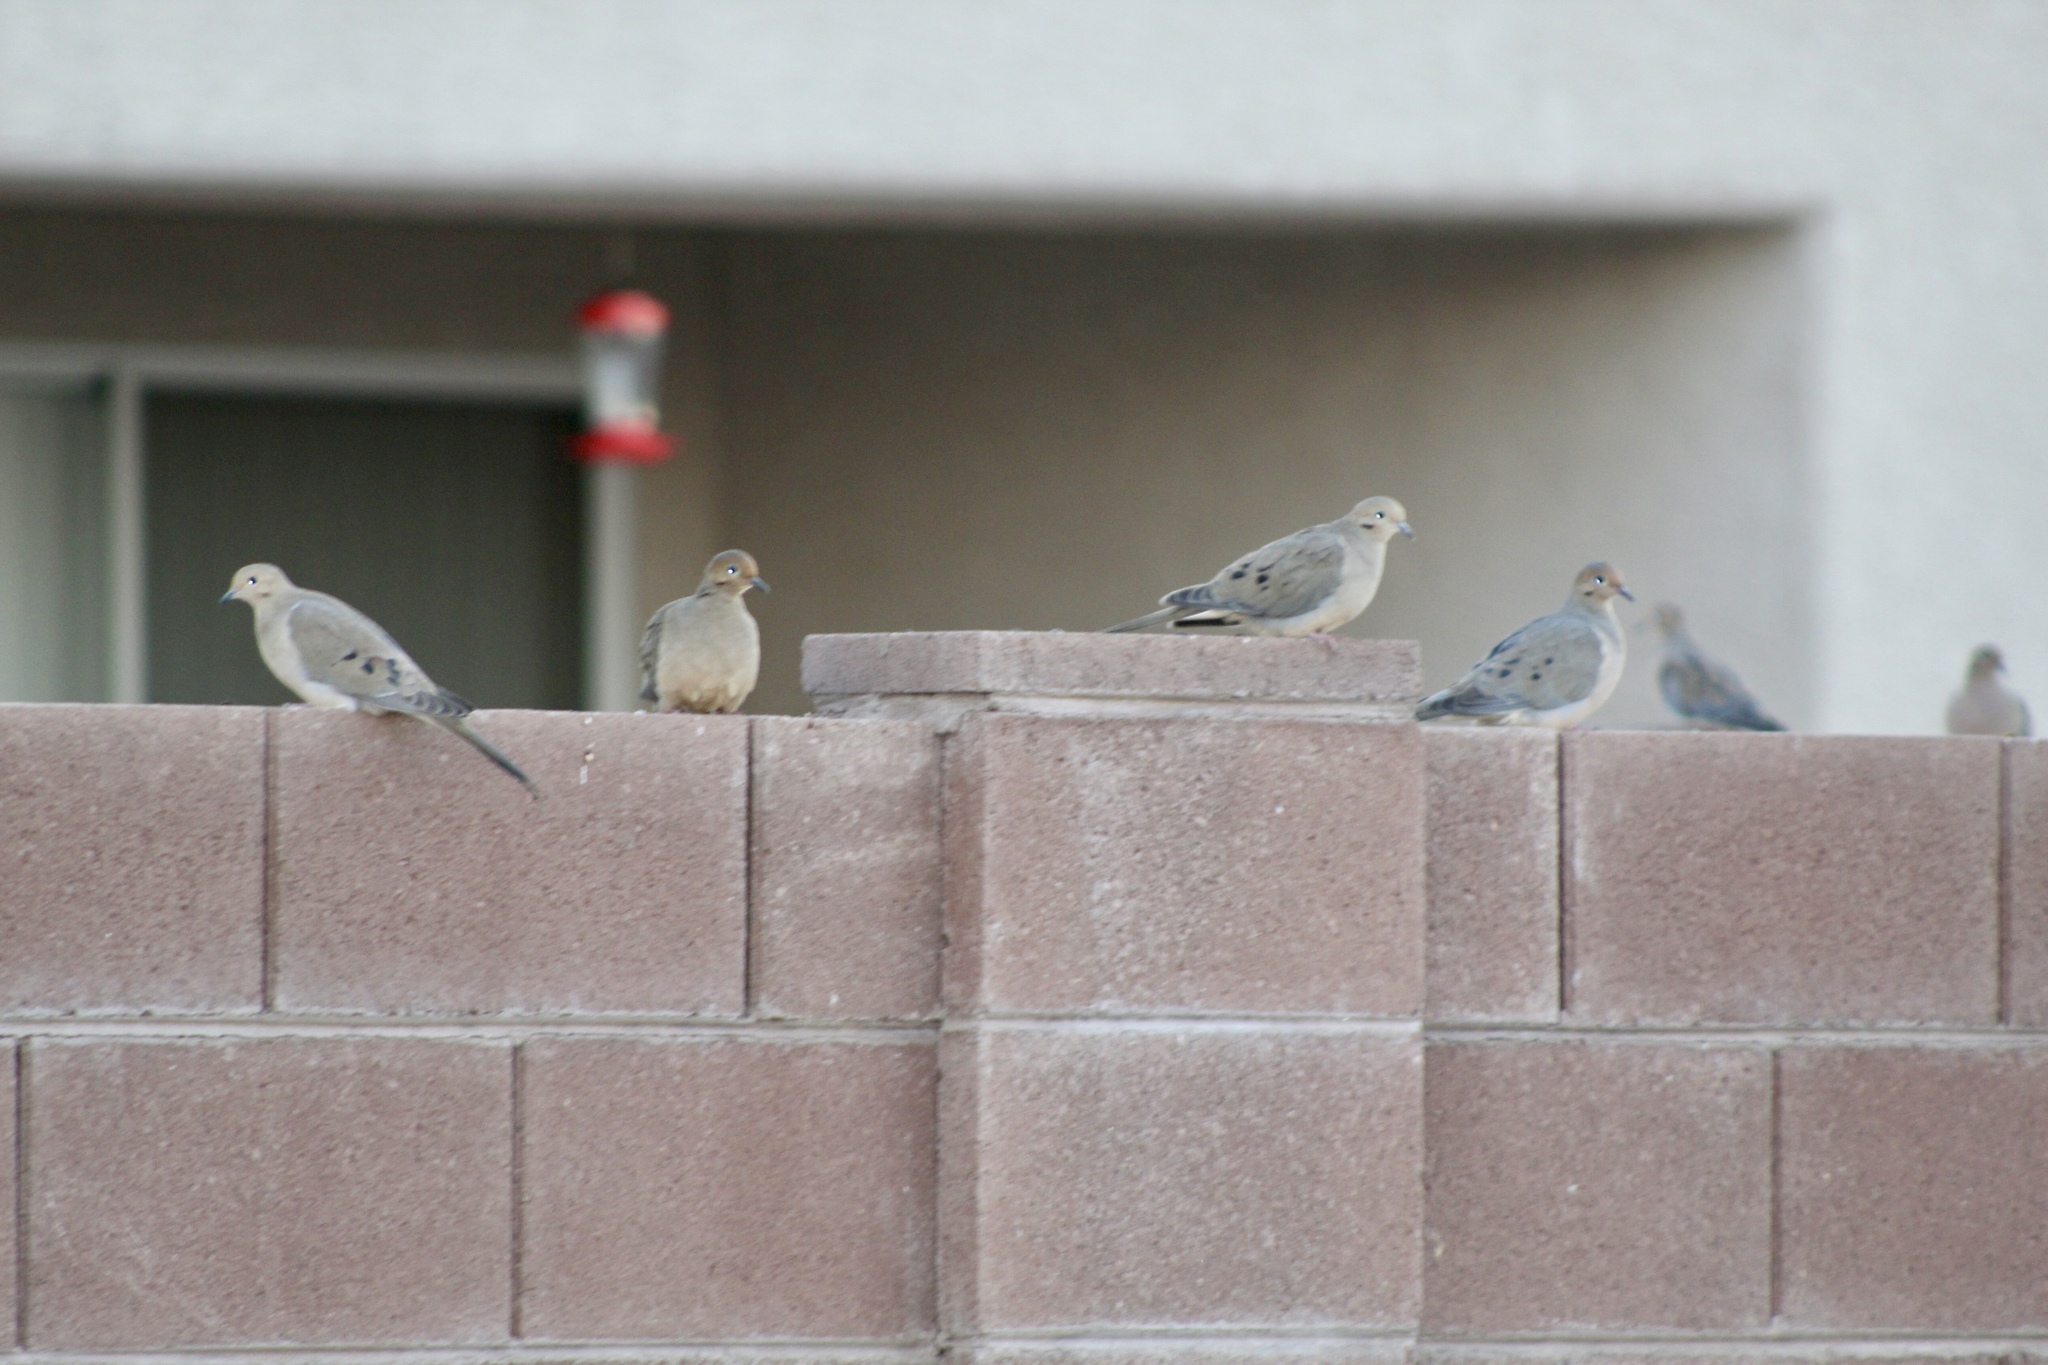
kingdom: Animalia
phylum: Chordata
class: Aves
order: Columbiformes
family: Columbidae
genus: Zenaida
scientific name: Zenaida macroura
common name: Mourning dove
